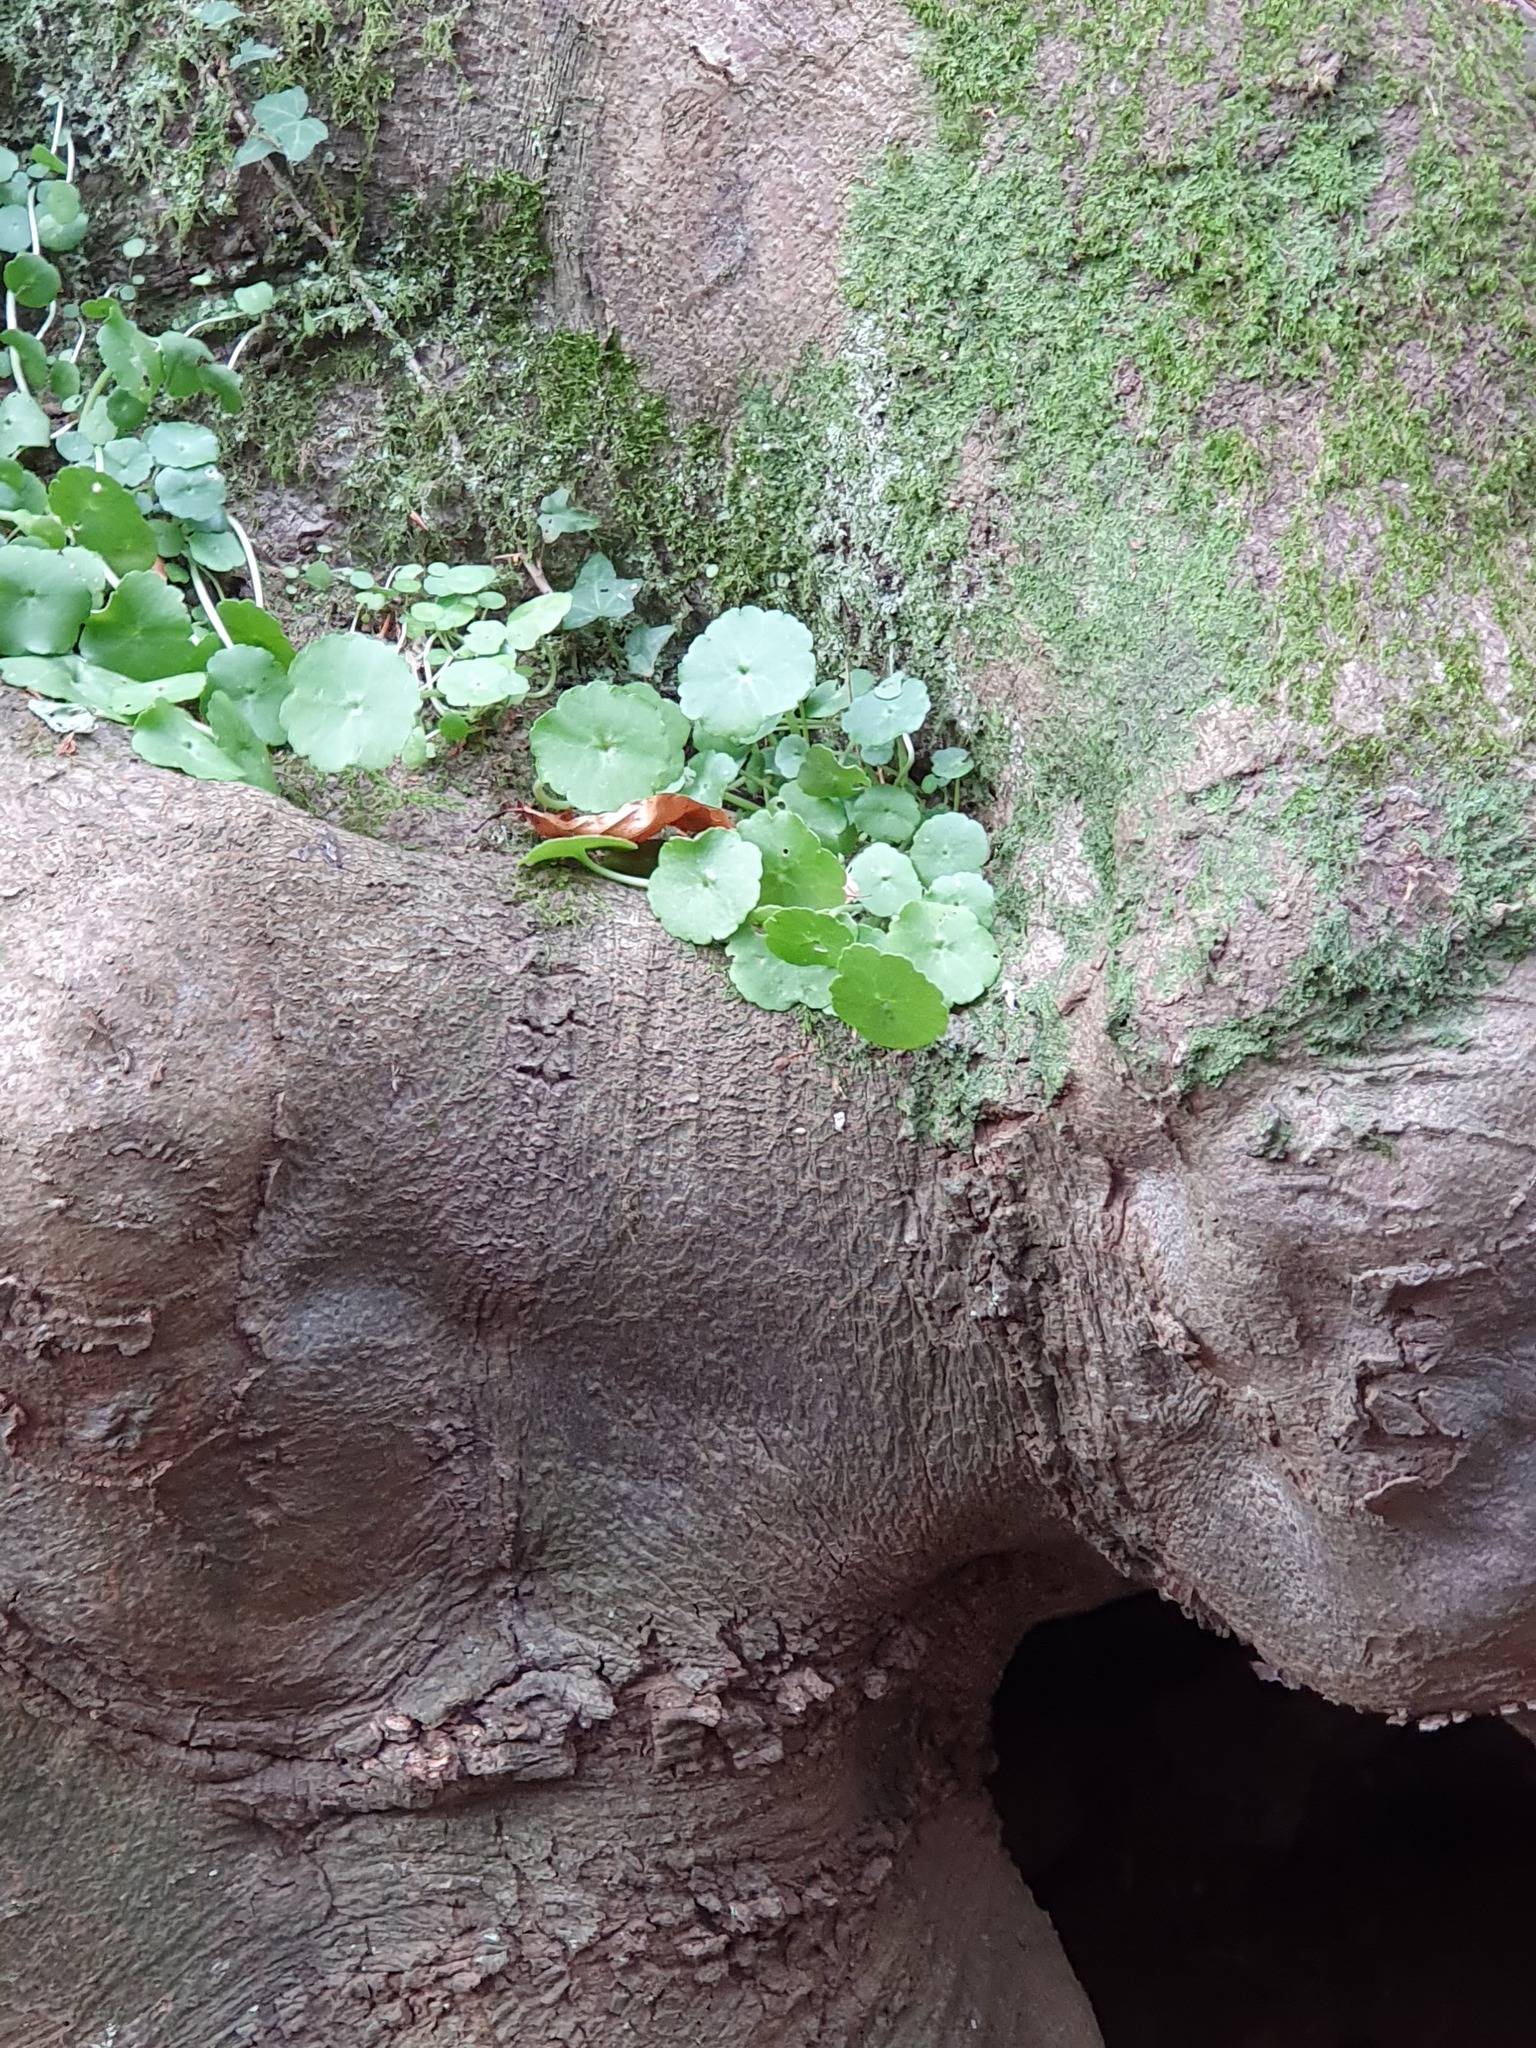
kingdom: Plantae
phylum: Tracheophyta
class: Magnoliopsida
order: Saxifragales
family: Crassulaceae
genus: Umbilicus
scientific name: Umbilicus rupestris
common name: Navelwort
